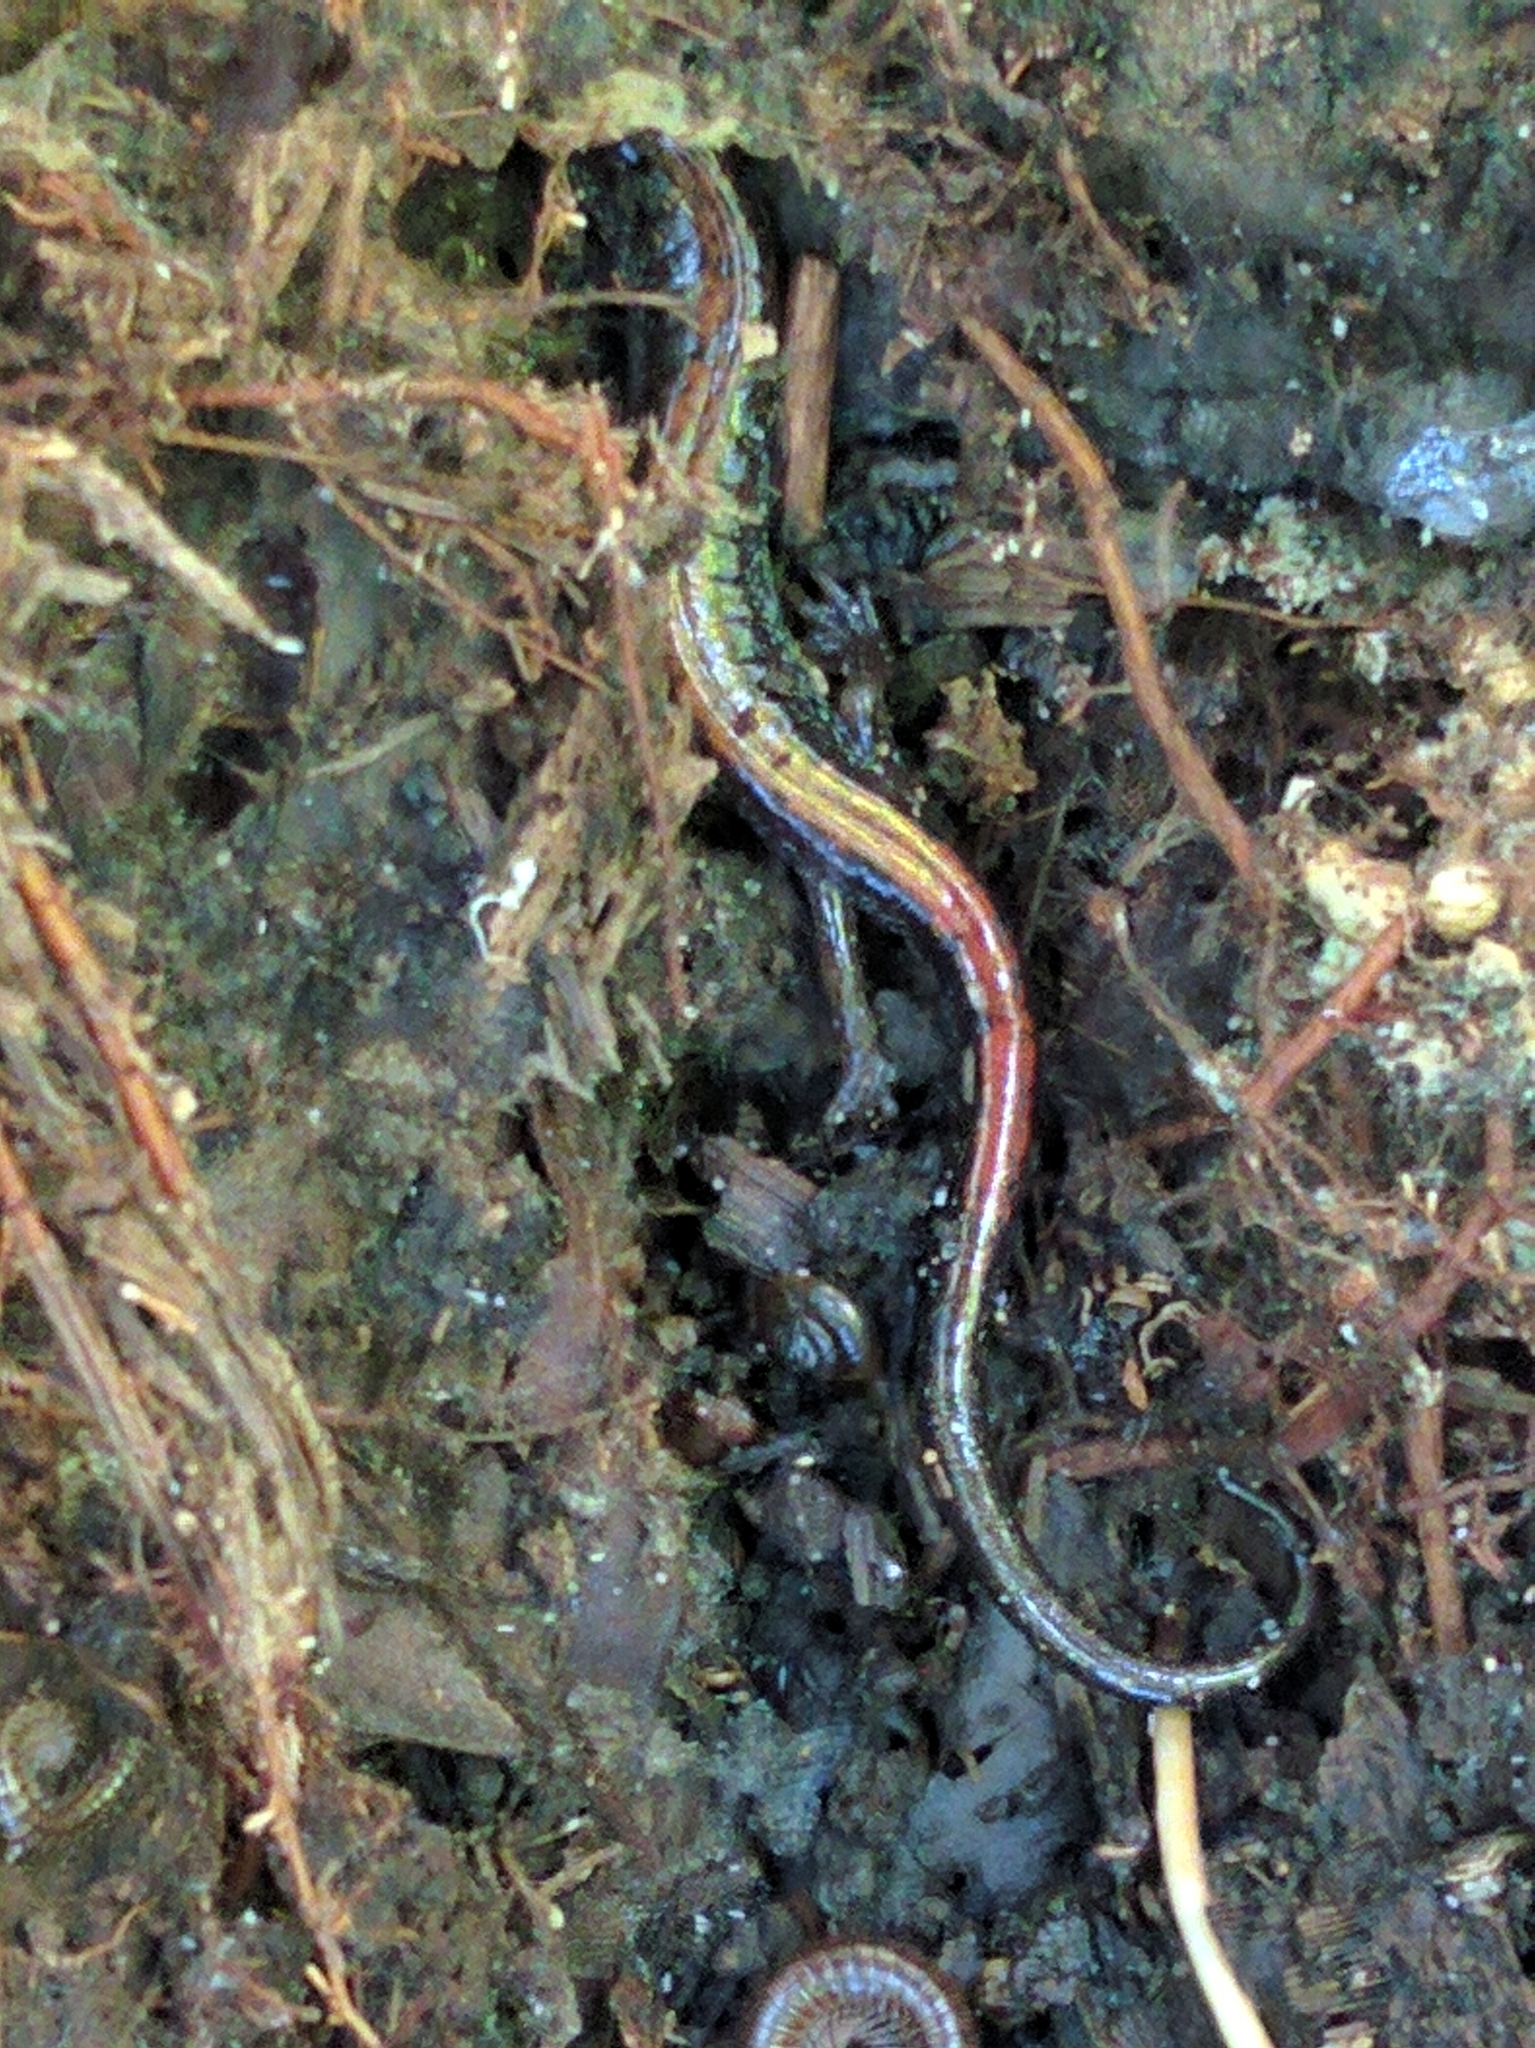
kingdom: Animalia
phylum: Chordata
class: Amphibia
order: Caudata
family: Plethodontidae
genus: Plethodon
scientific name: Plethodon cinereus
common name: Redback salamander
